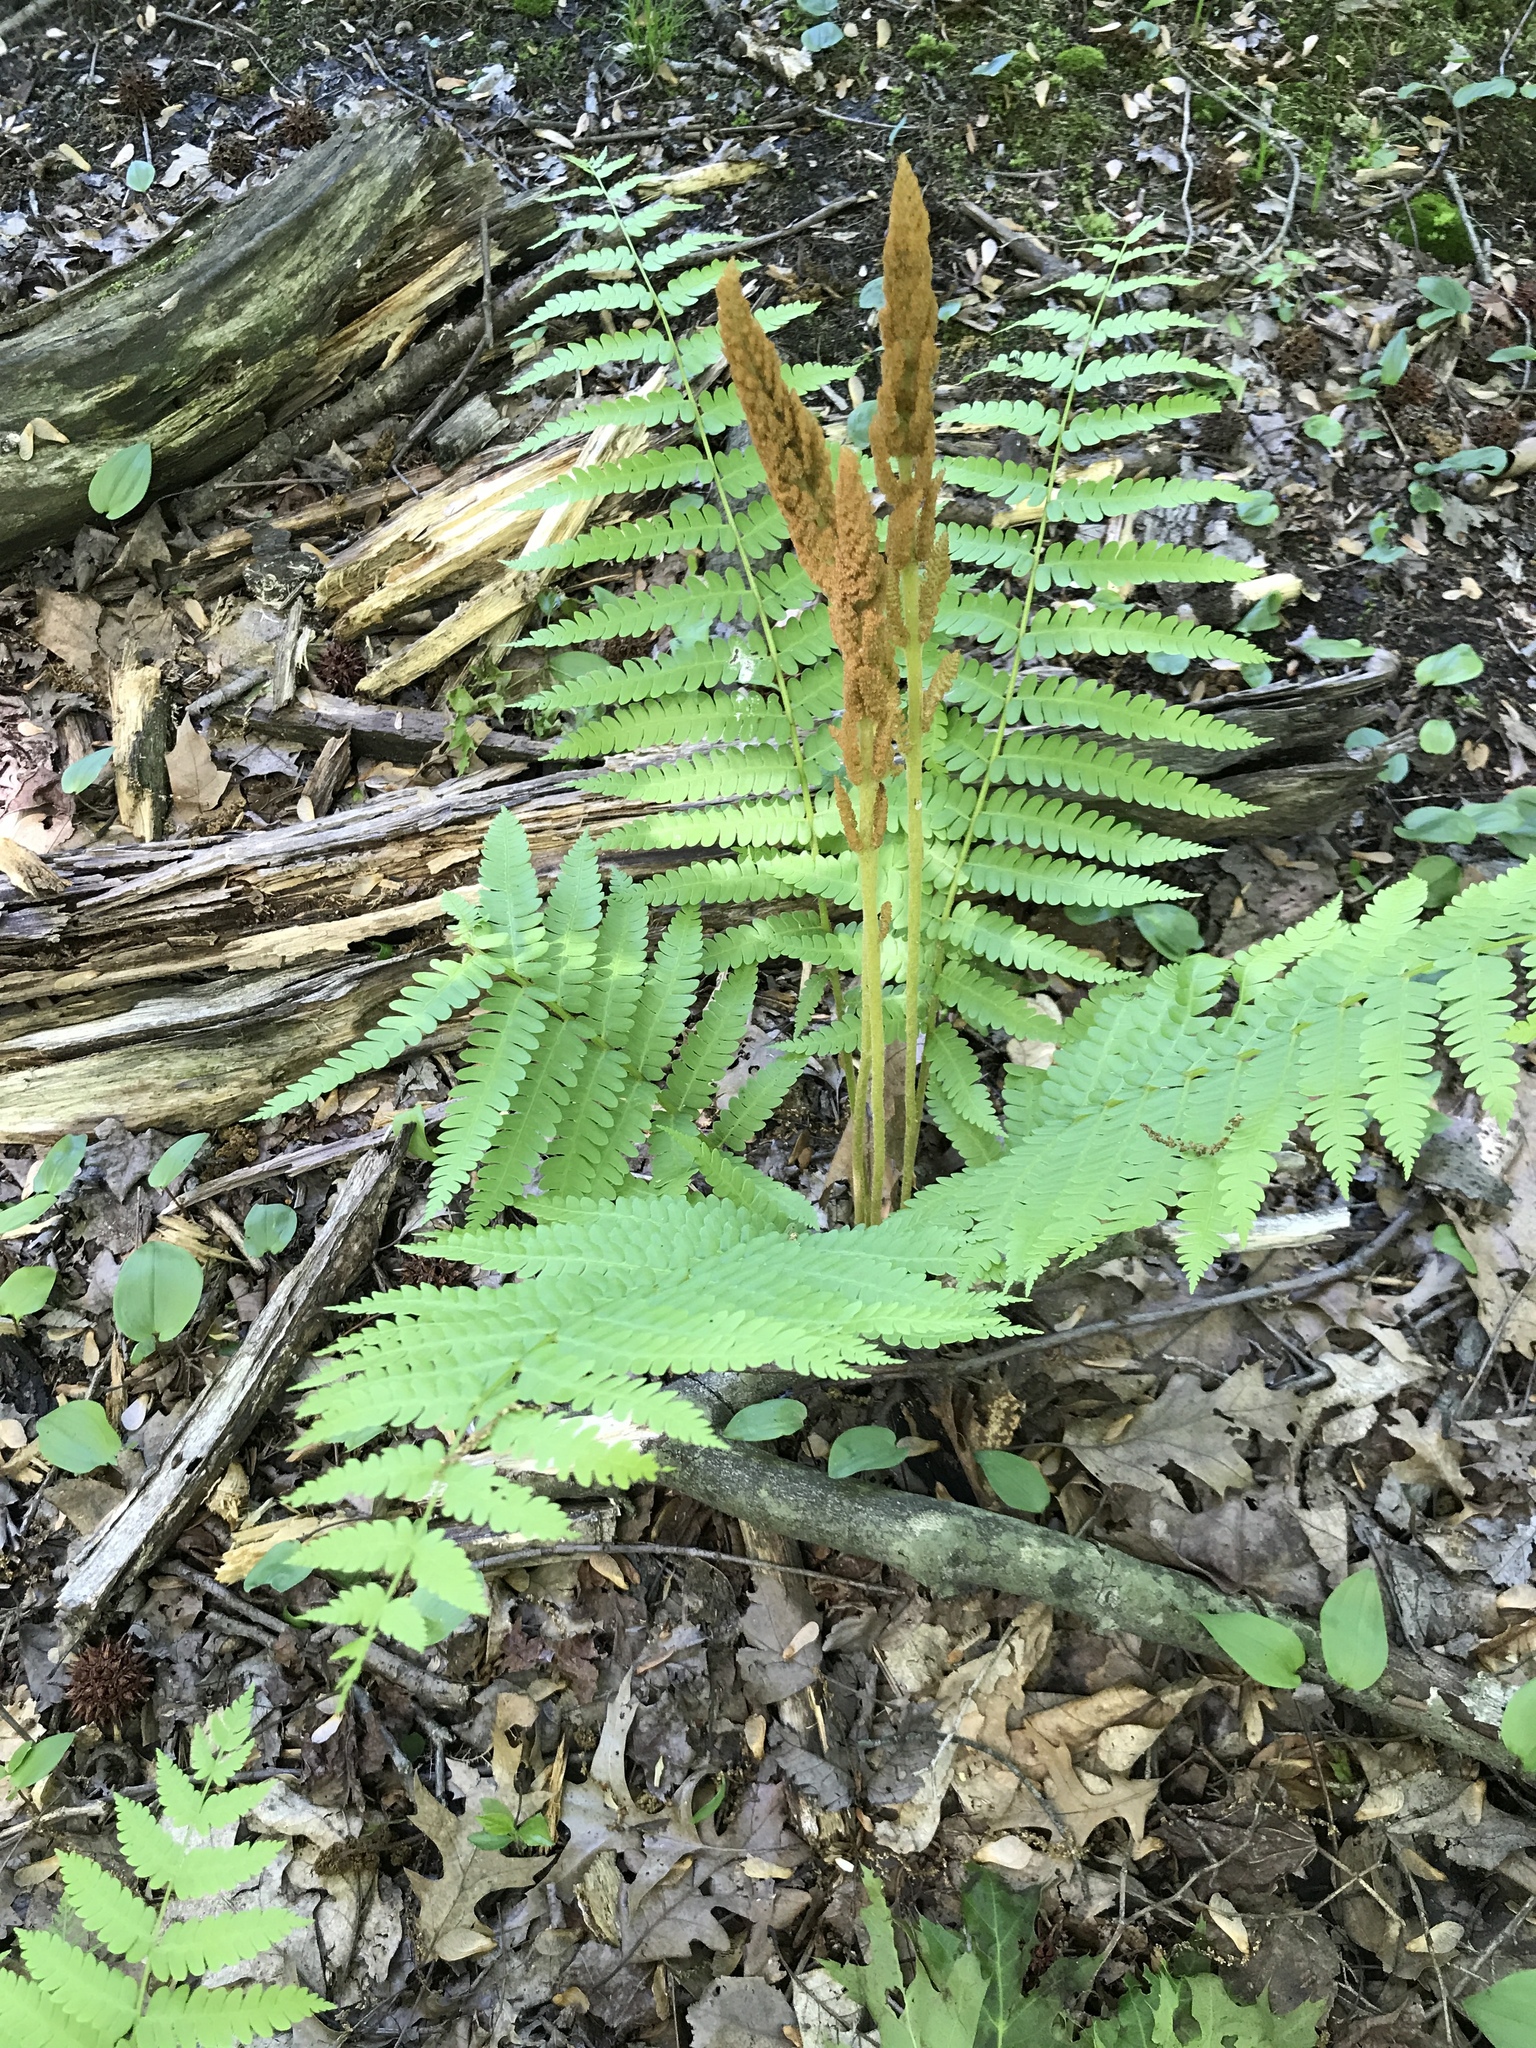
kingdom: Plantae
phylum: Tracheophyta
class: Polypodiopsida
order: Osmundales
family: Osmundaceae
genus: Osmundastrum
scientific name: Osmundastrum cinnamomeum
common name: Cinnamon fern
